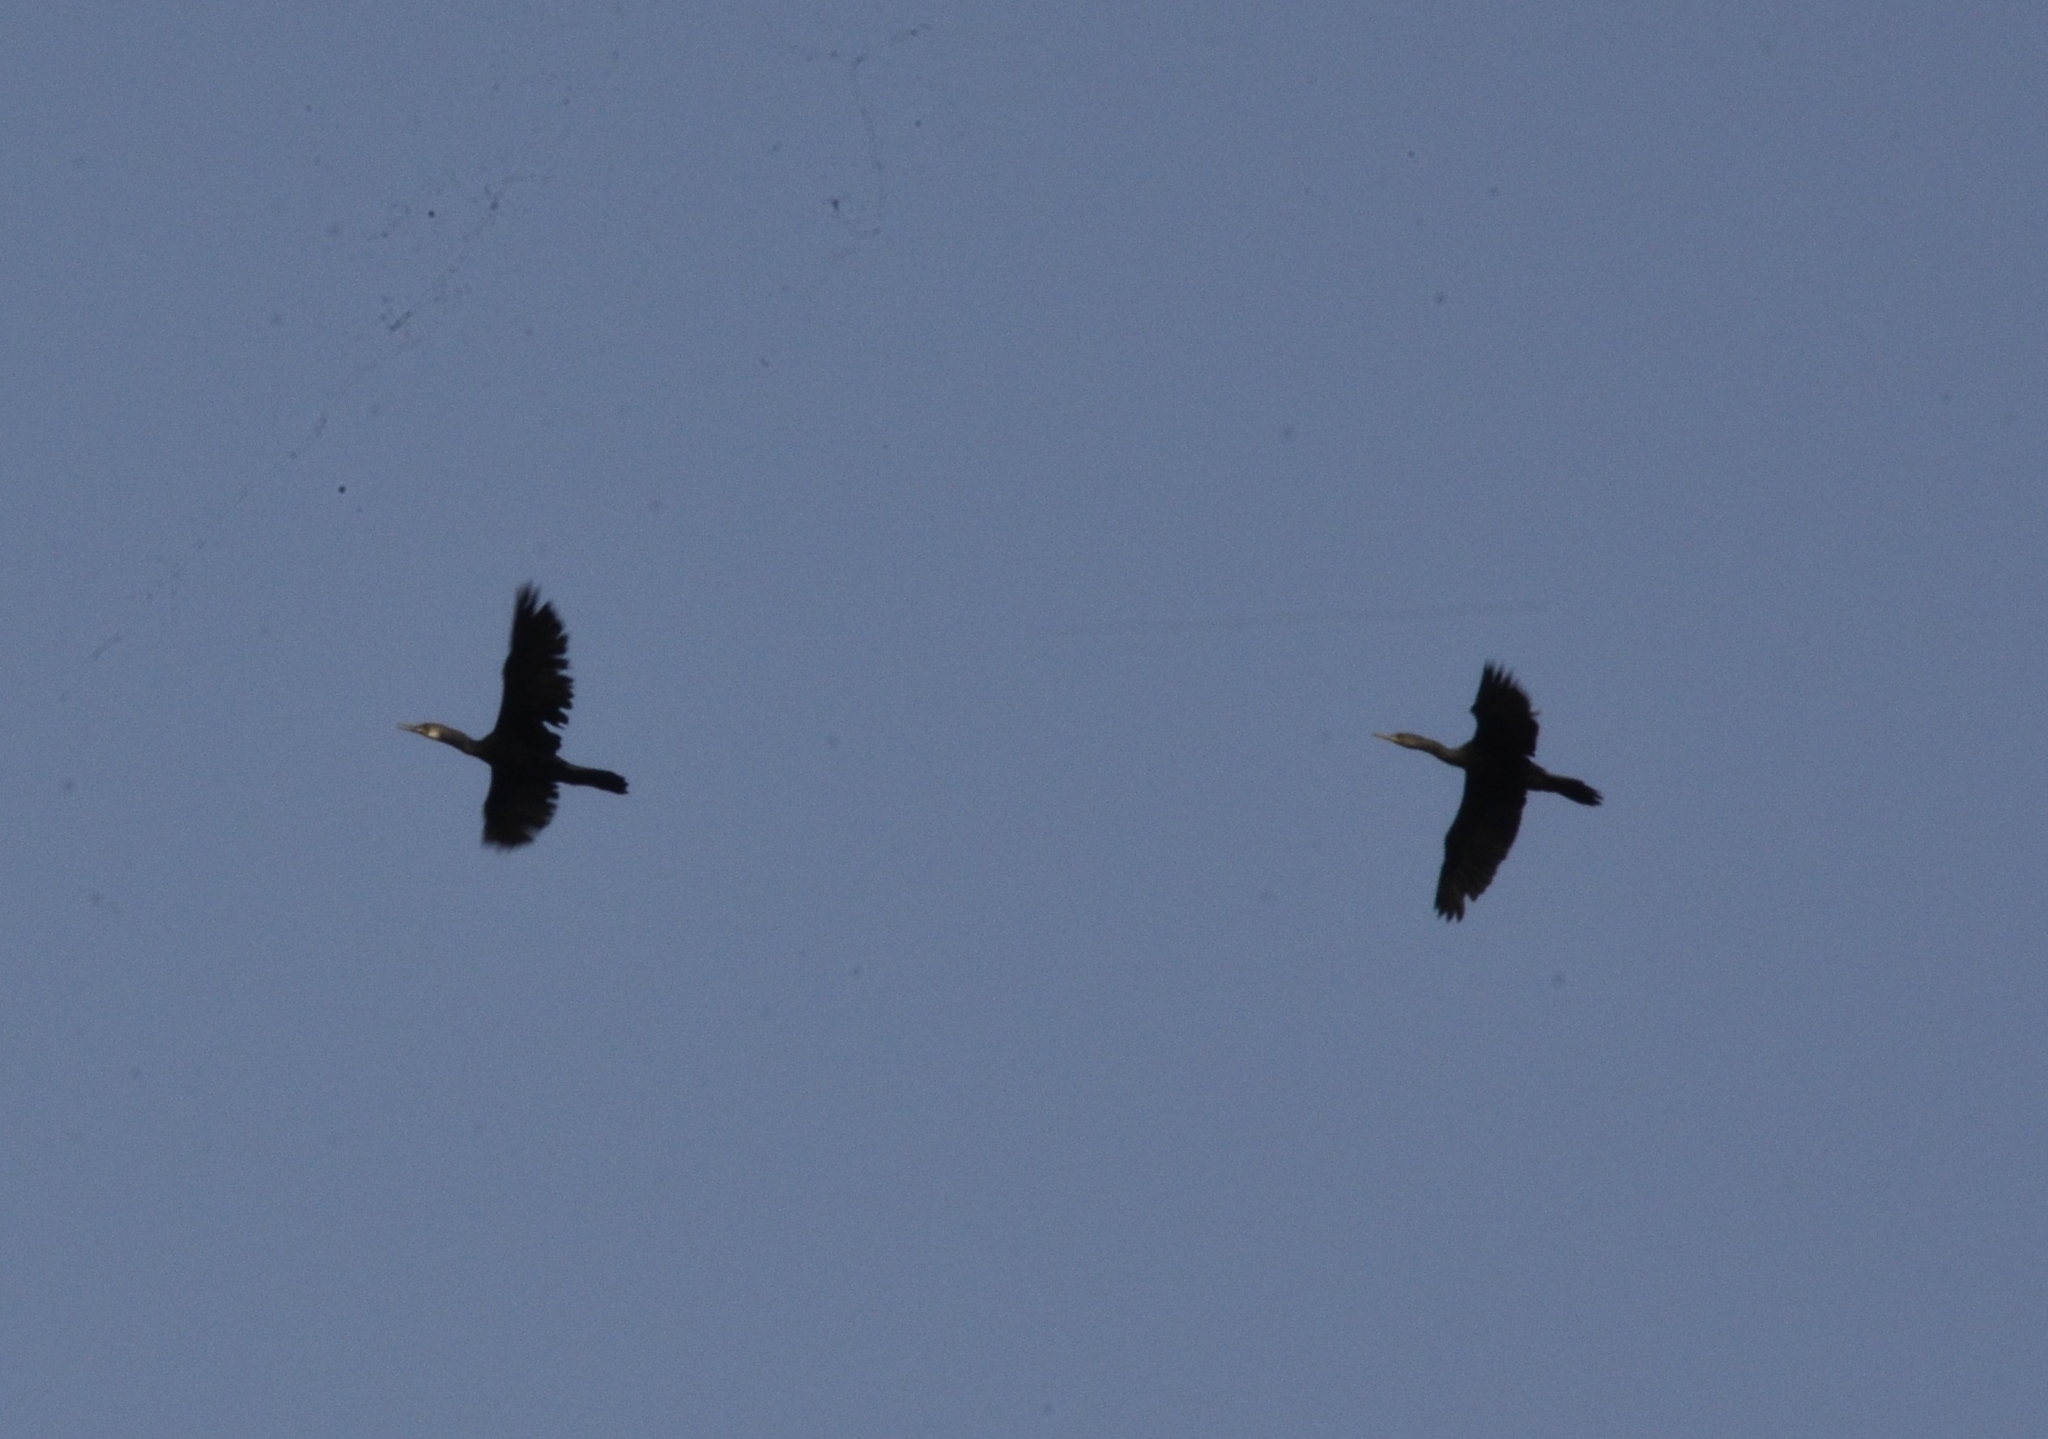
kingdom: Animalia
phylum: Chordata
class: Aves
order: Suliformes
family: Phalacrocoracidae
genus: Phalacrocorax
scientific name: Phalacrocorax fuscicollis
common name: Indian cormorant
